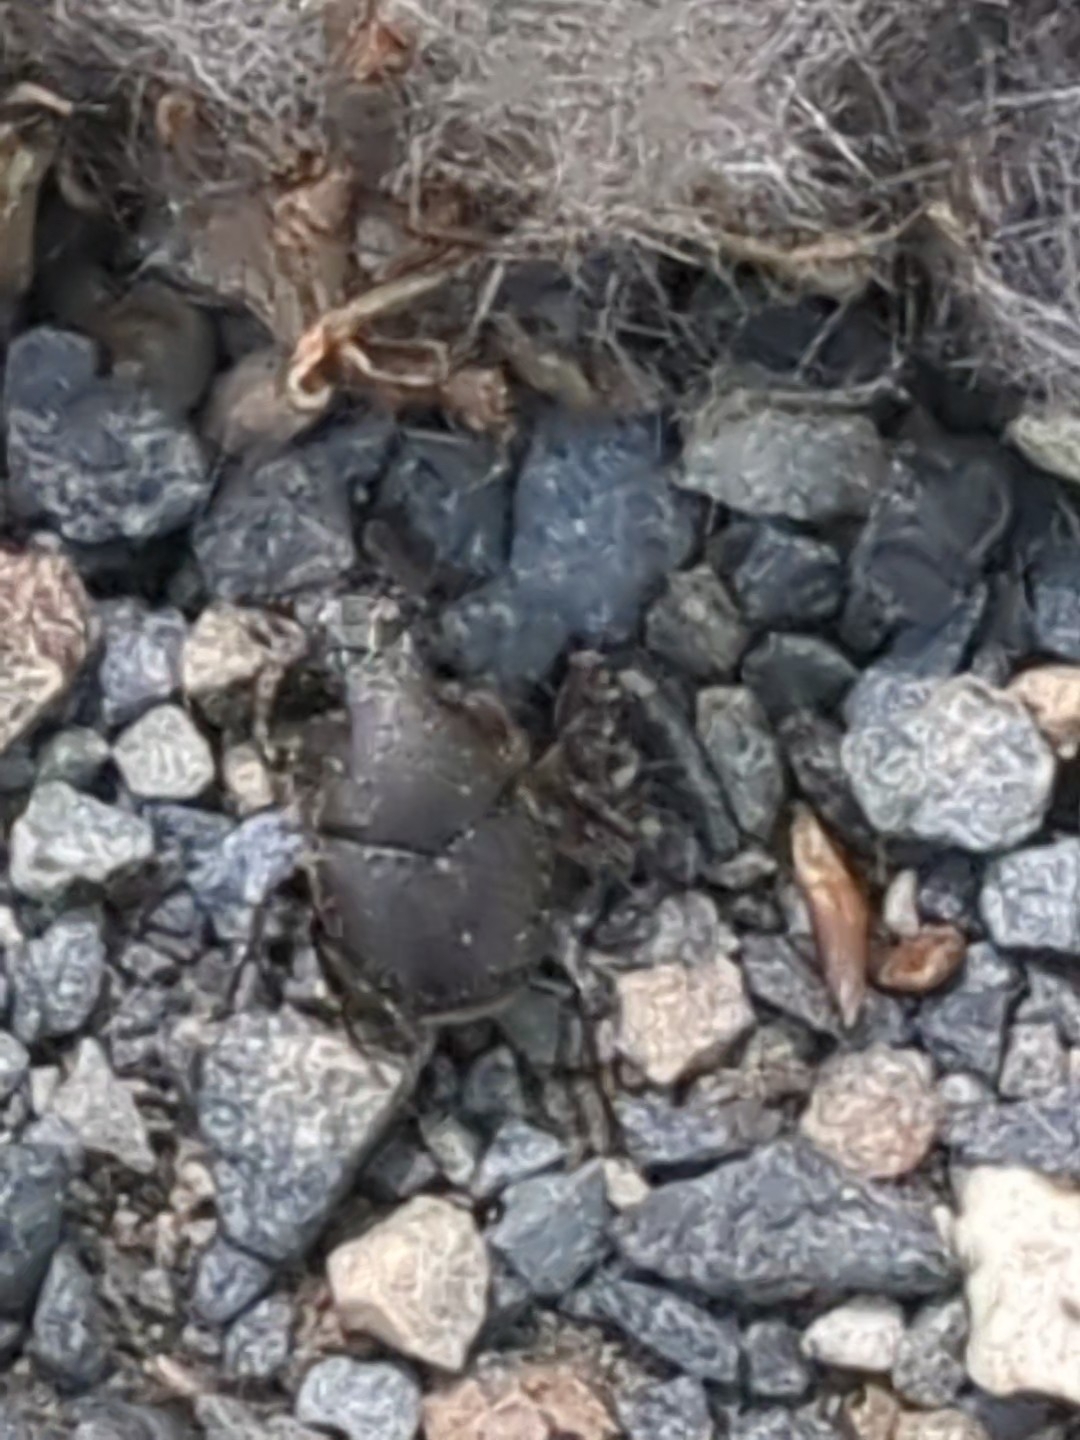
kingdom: Animalia
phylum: Arthropoda
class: Insecta
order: Coleoptera
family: Scarabaeidae
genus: Onthophagus
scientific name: Onthophagus hecate
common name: Scooped scarab
